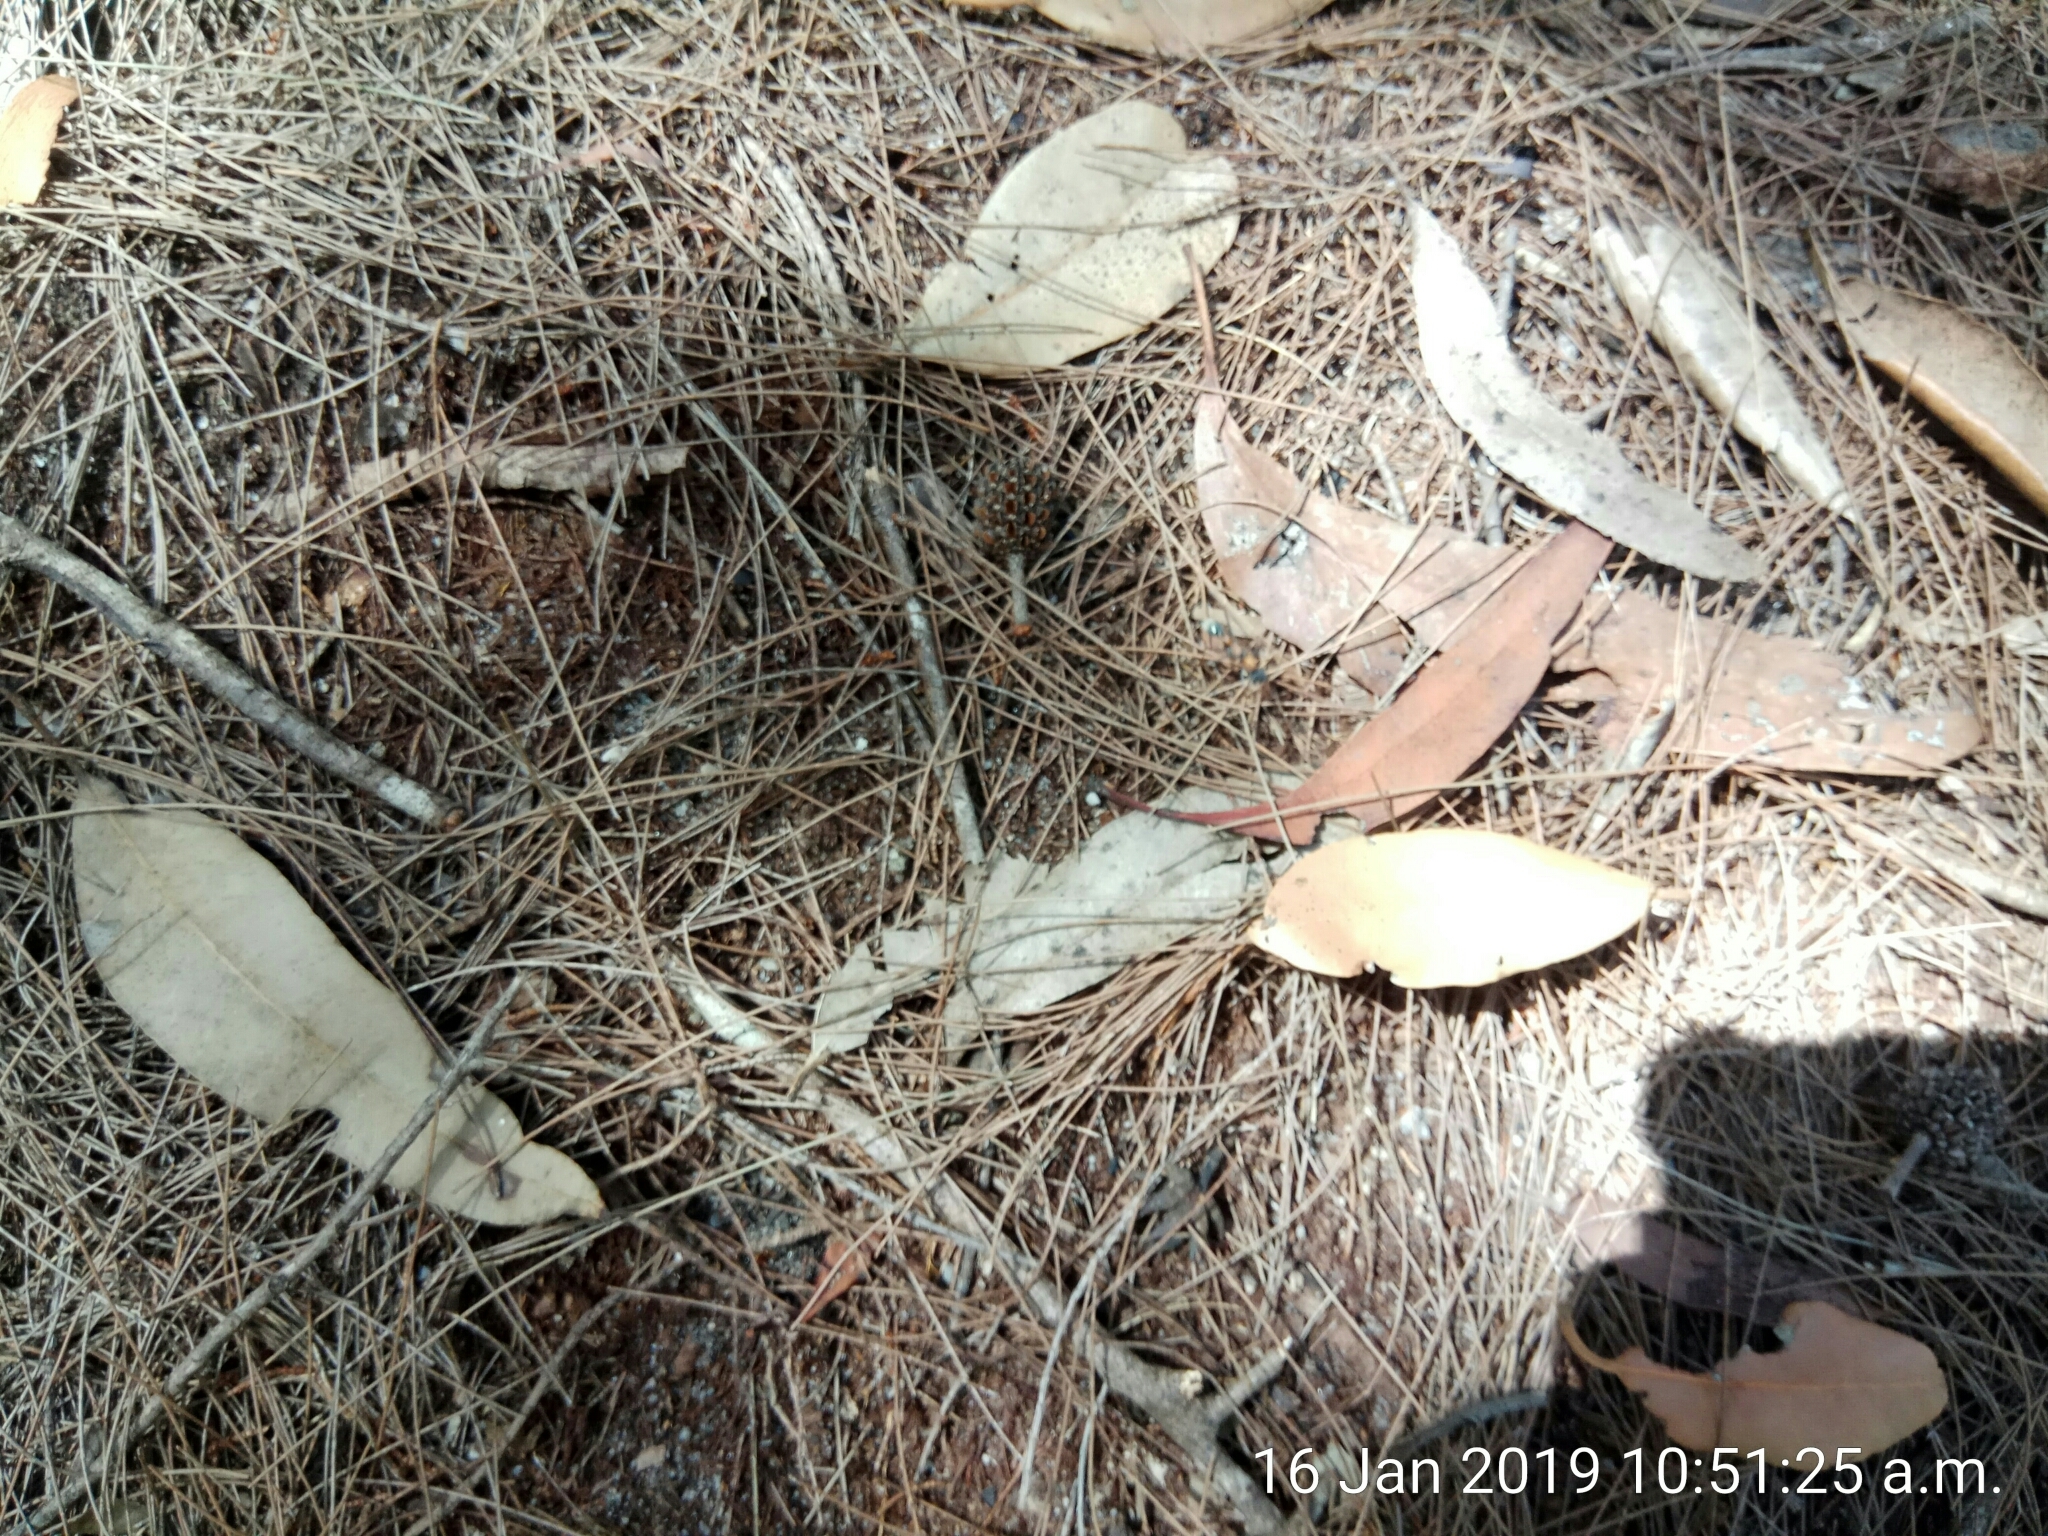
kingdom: Animalia
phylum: Arthropoda
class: Insecta
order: Hymenoptera
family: Formicidae
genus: Myrmecia
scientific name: Myrmecia nigrocincta
